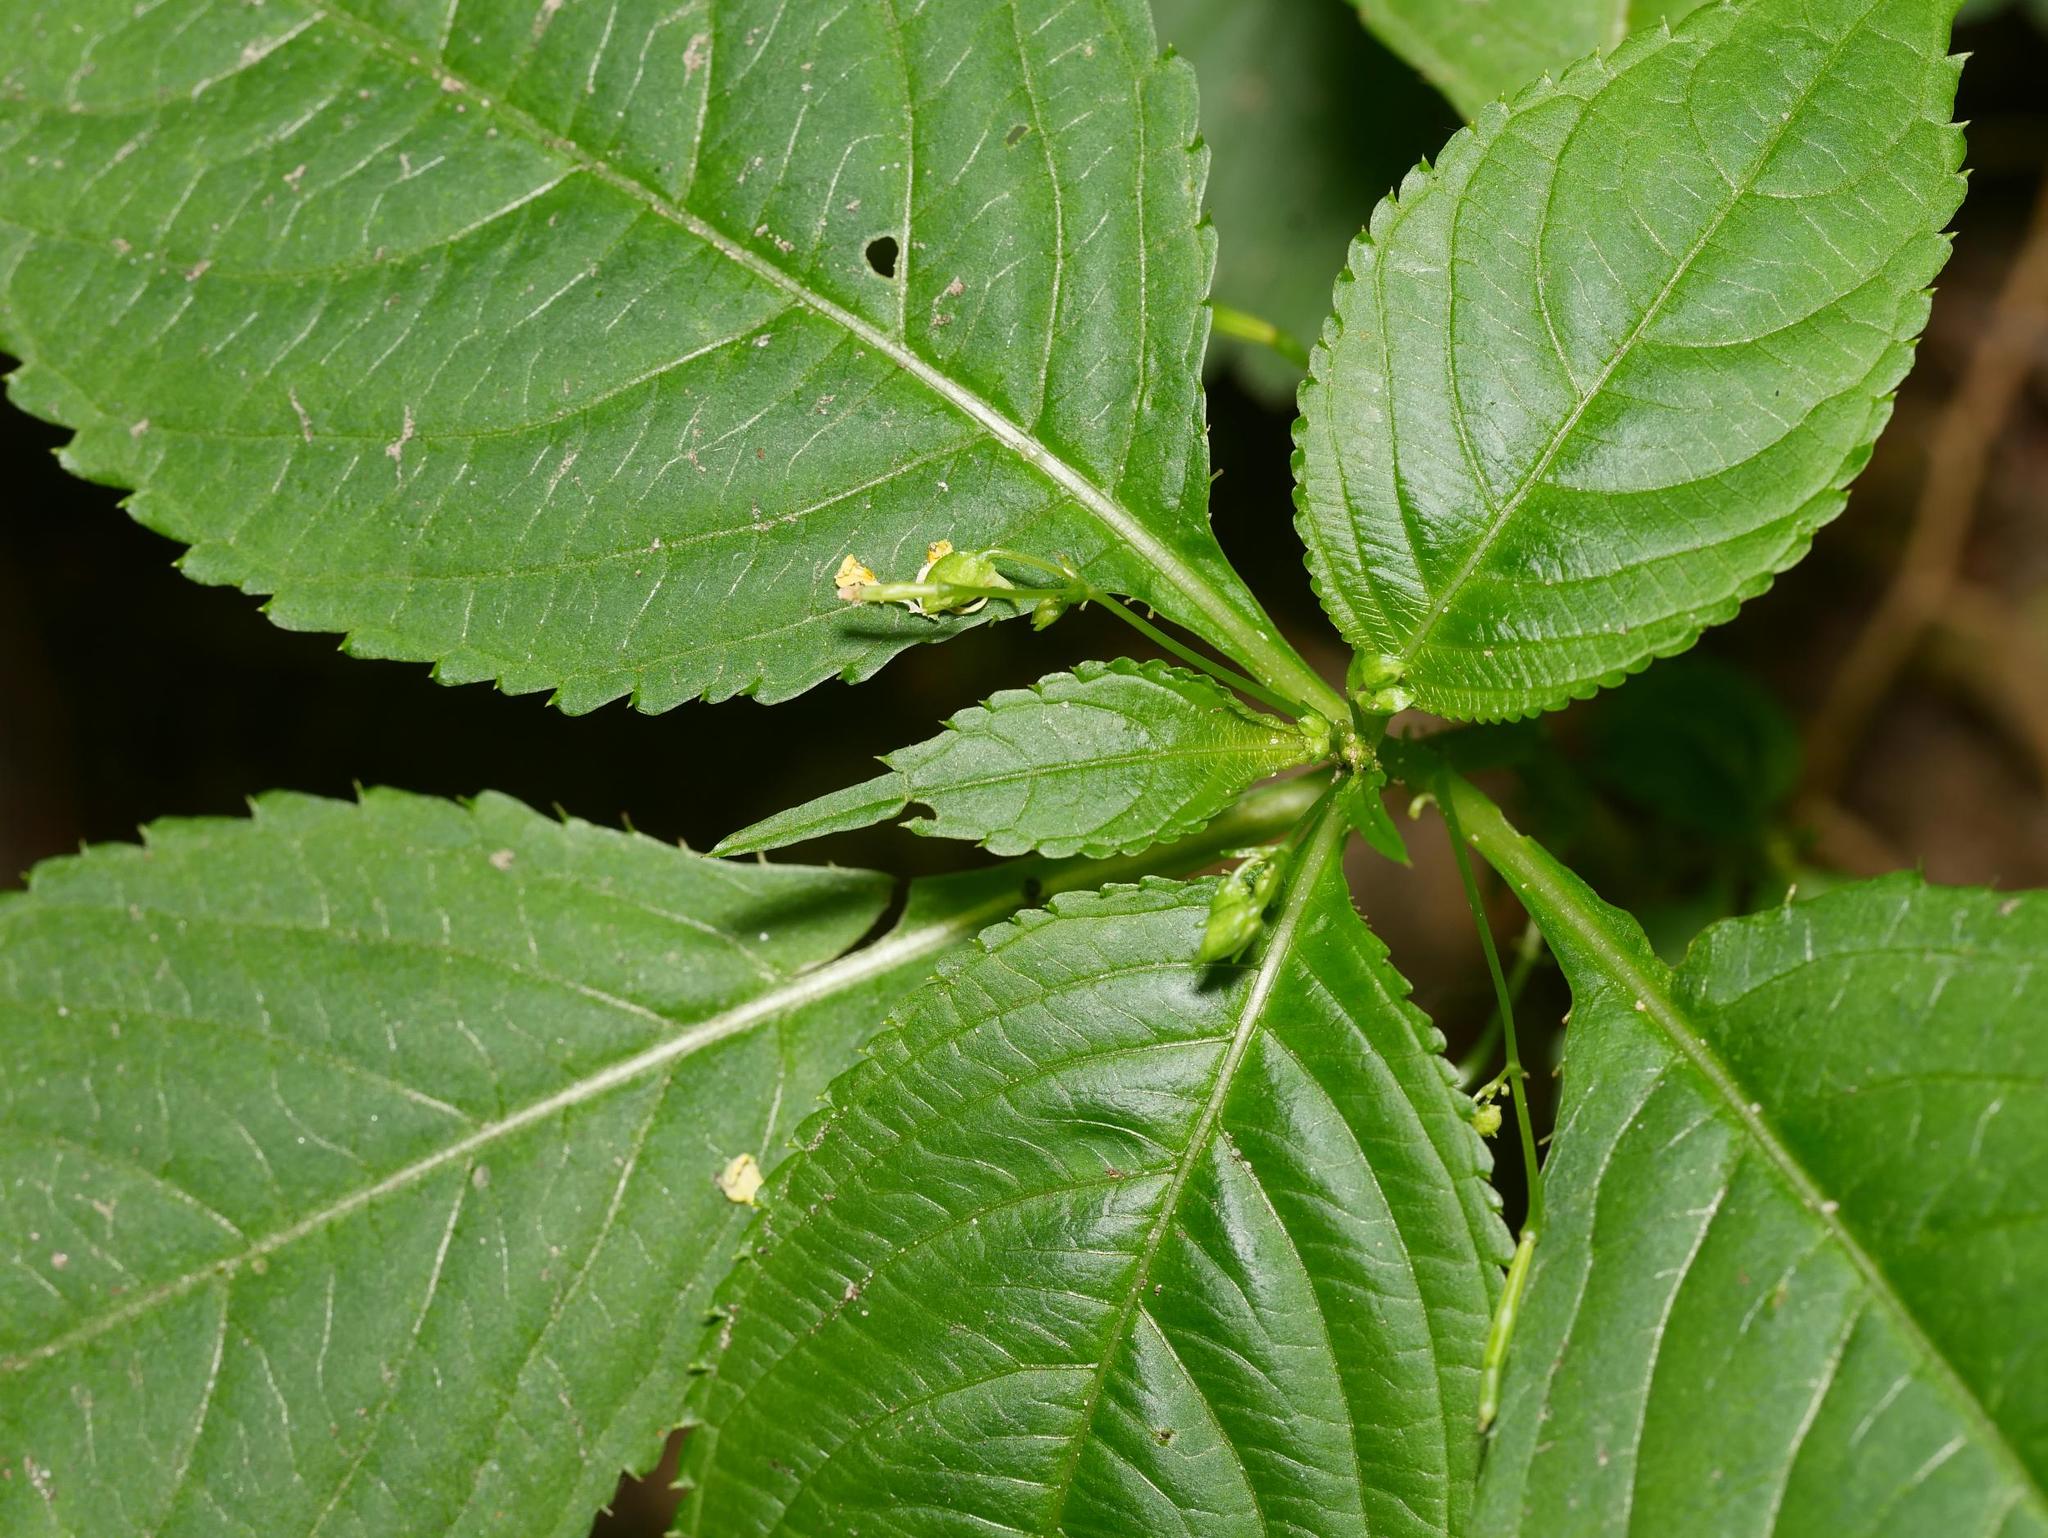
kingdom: Plantae
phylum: Tracheophyta
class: Magnoliopsida
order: Ericales
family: Balsaminaceae
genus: Impatiens
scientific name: Impatiens parviflora
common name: Small balsam
